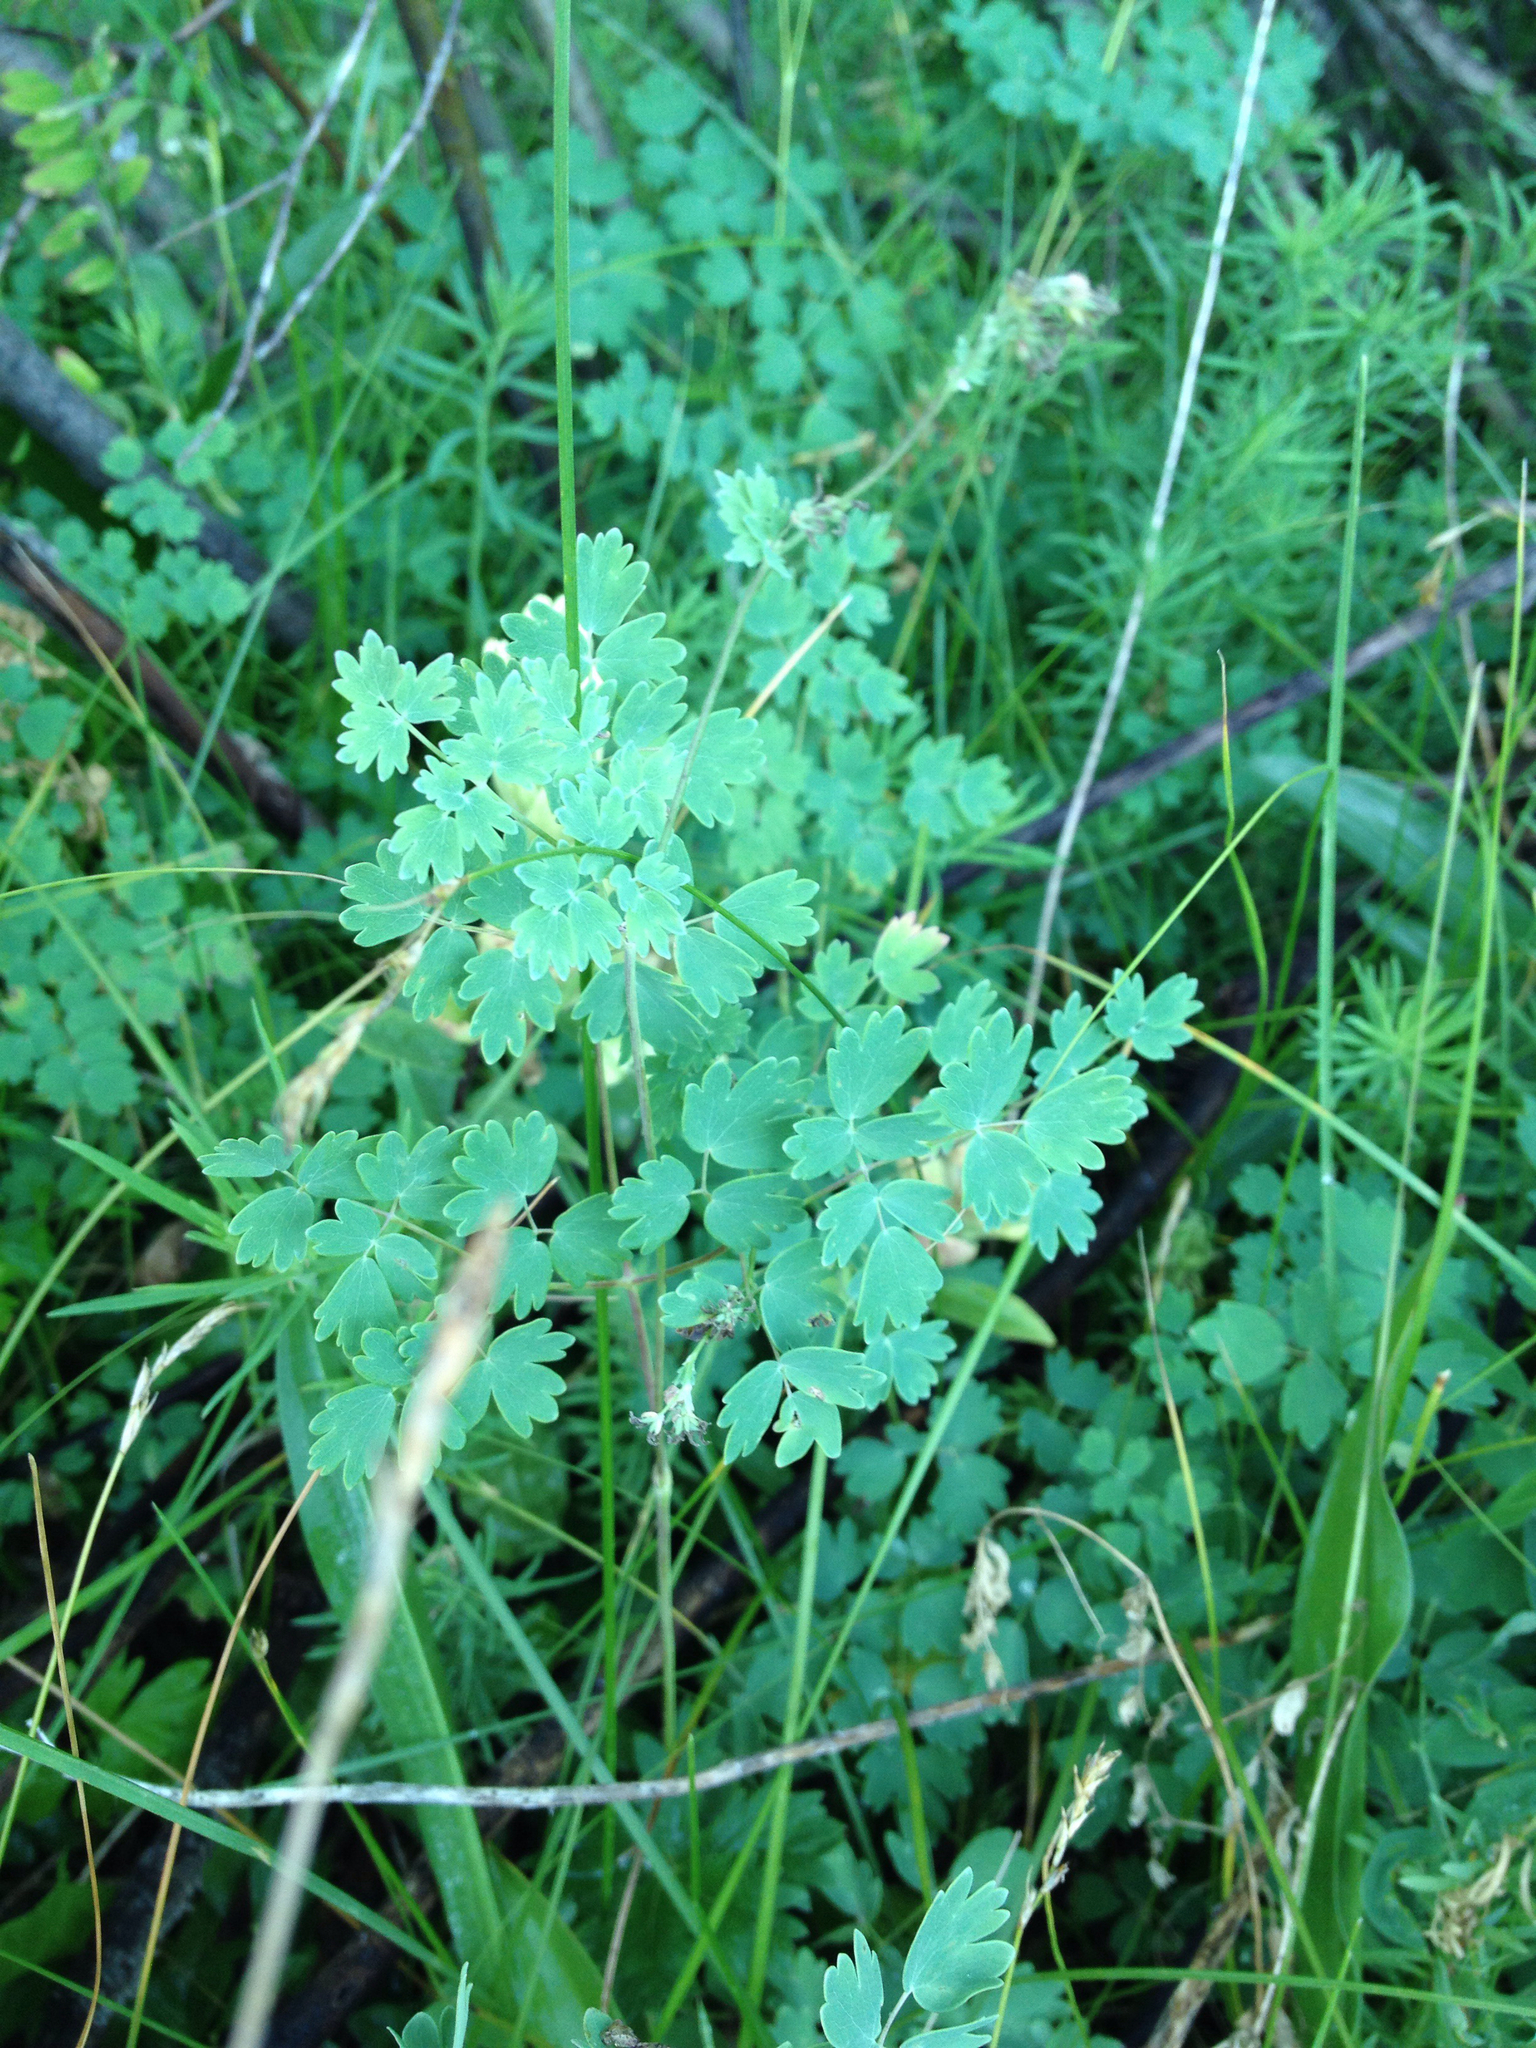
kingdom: Plantae
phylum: Tracheophyta
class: Magnoliopsida
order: Ranunculales
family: Ranunculaceae
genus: Thalictrum
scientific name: Thalictrum fendleri
